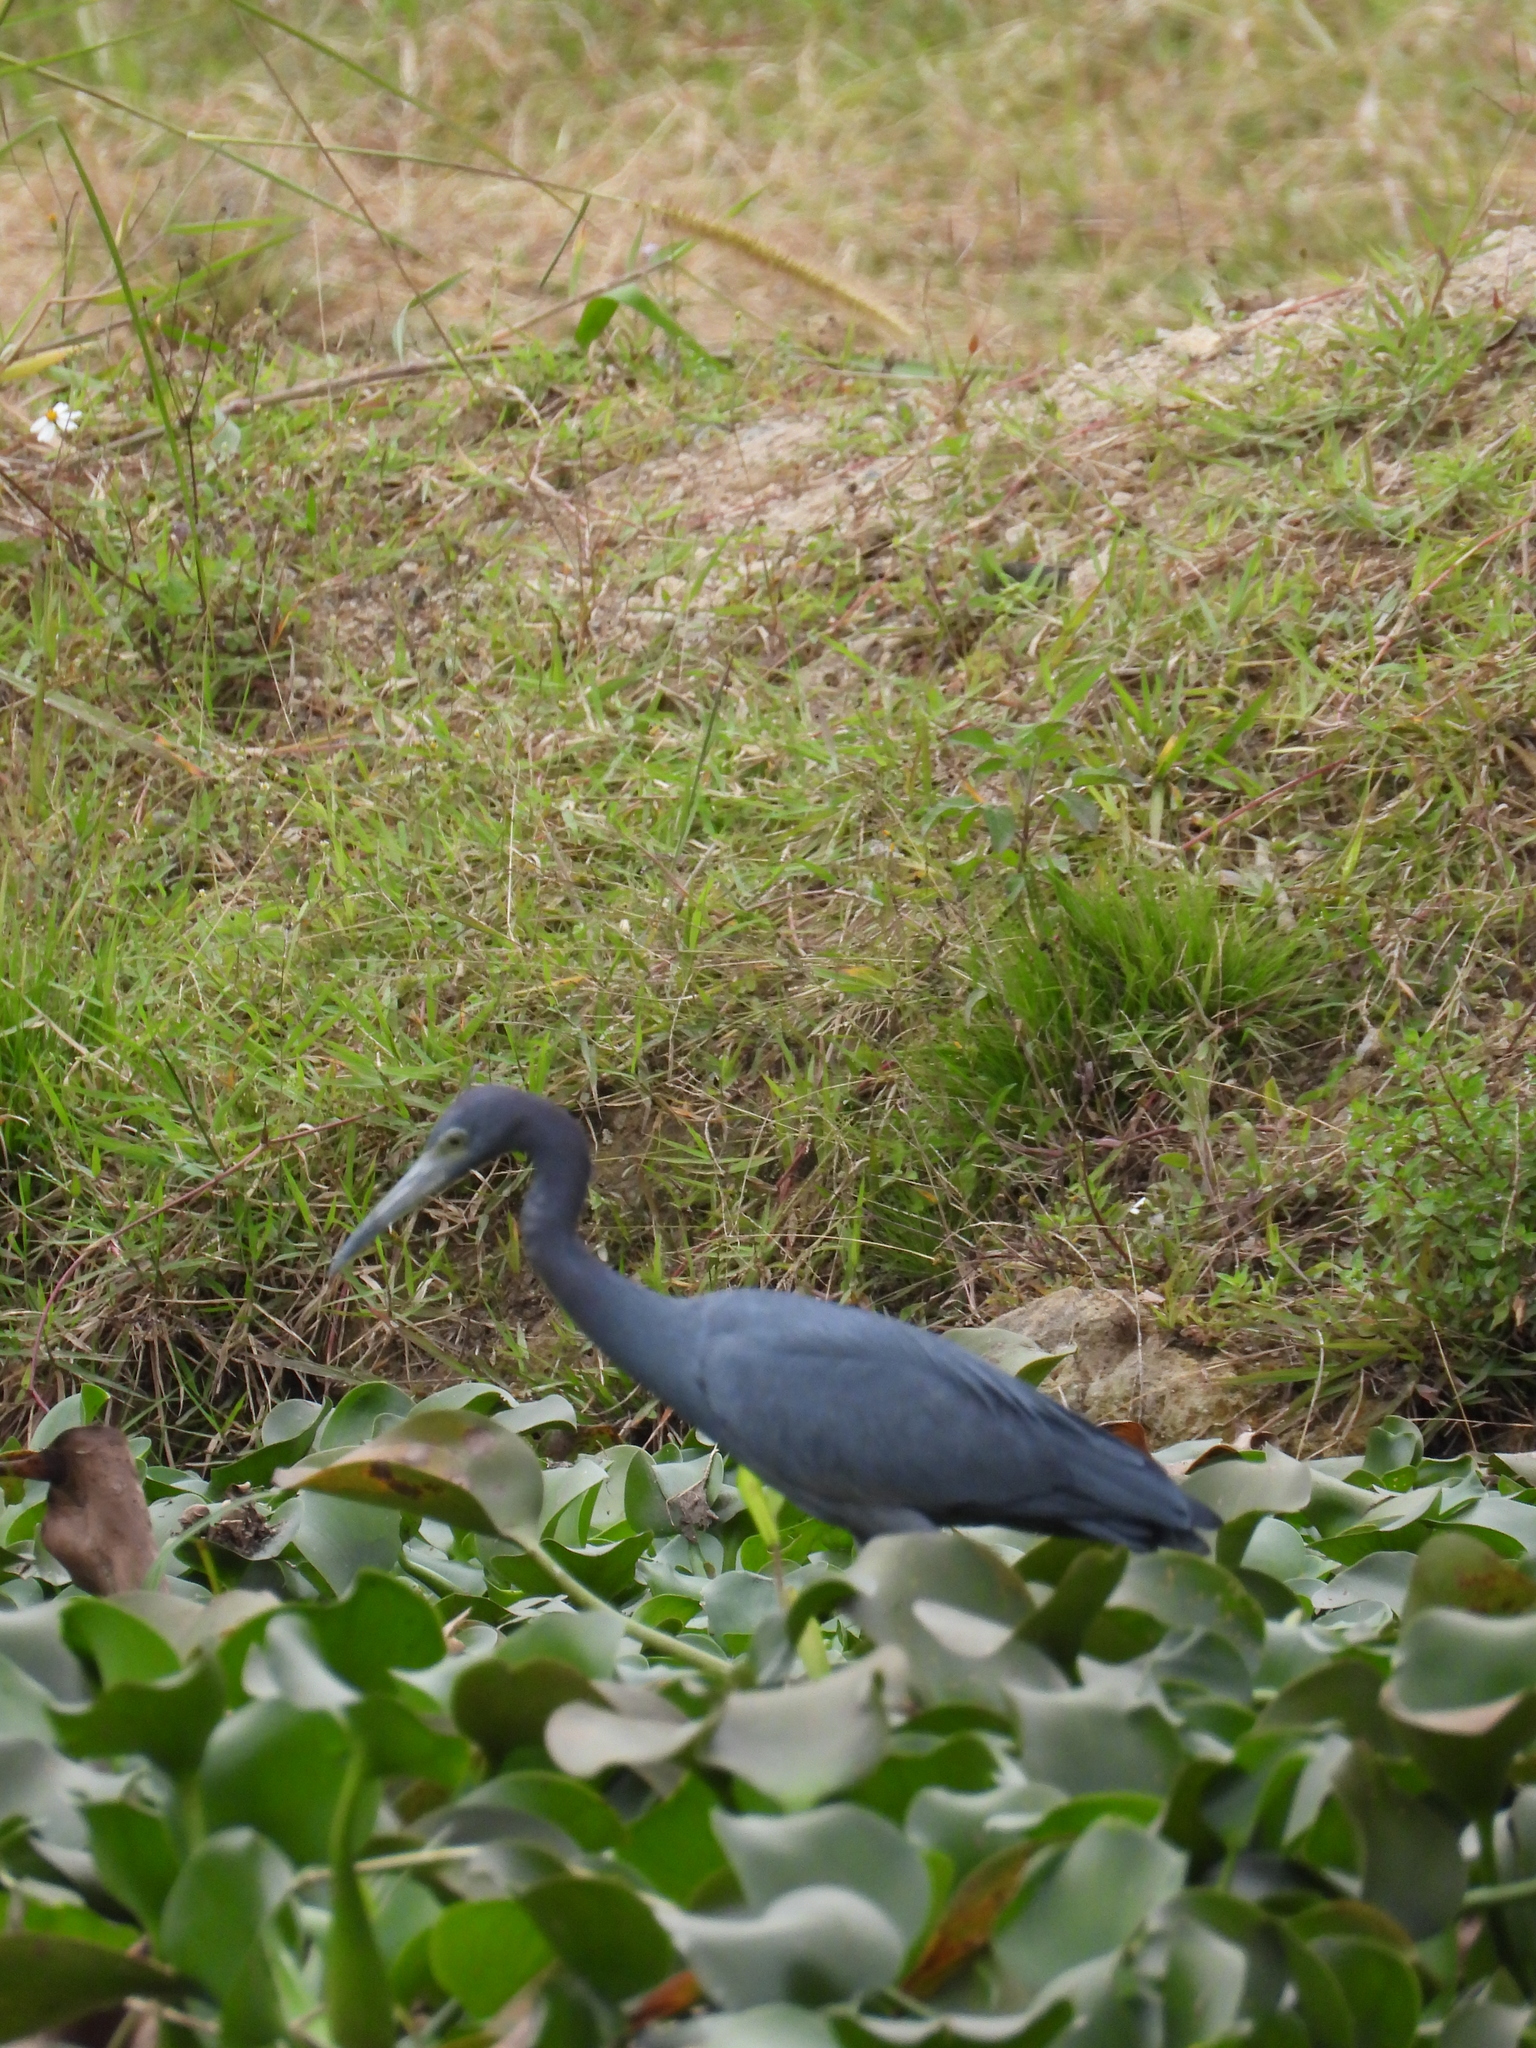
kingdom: Animalia
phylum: Chordata
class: Aves
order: Pelecaniformes
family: Ardeidae
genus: Egretta
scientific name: Egretta caerulea
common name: Little blue heron
